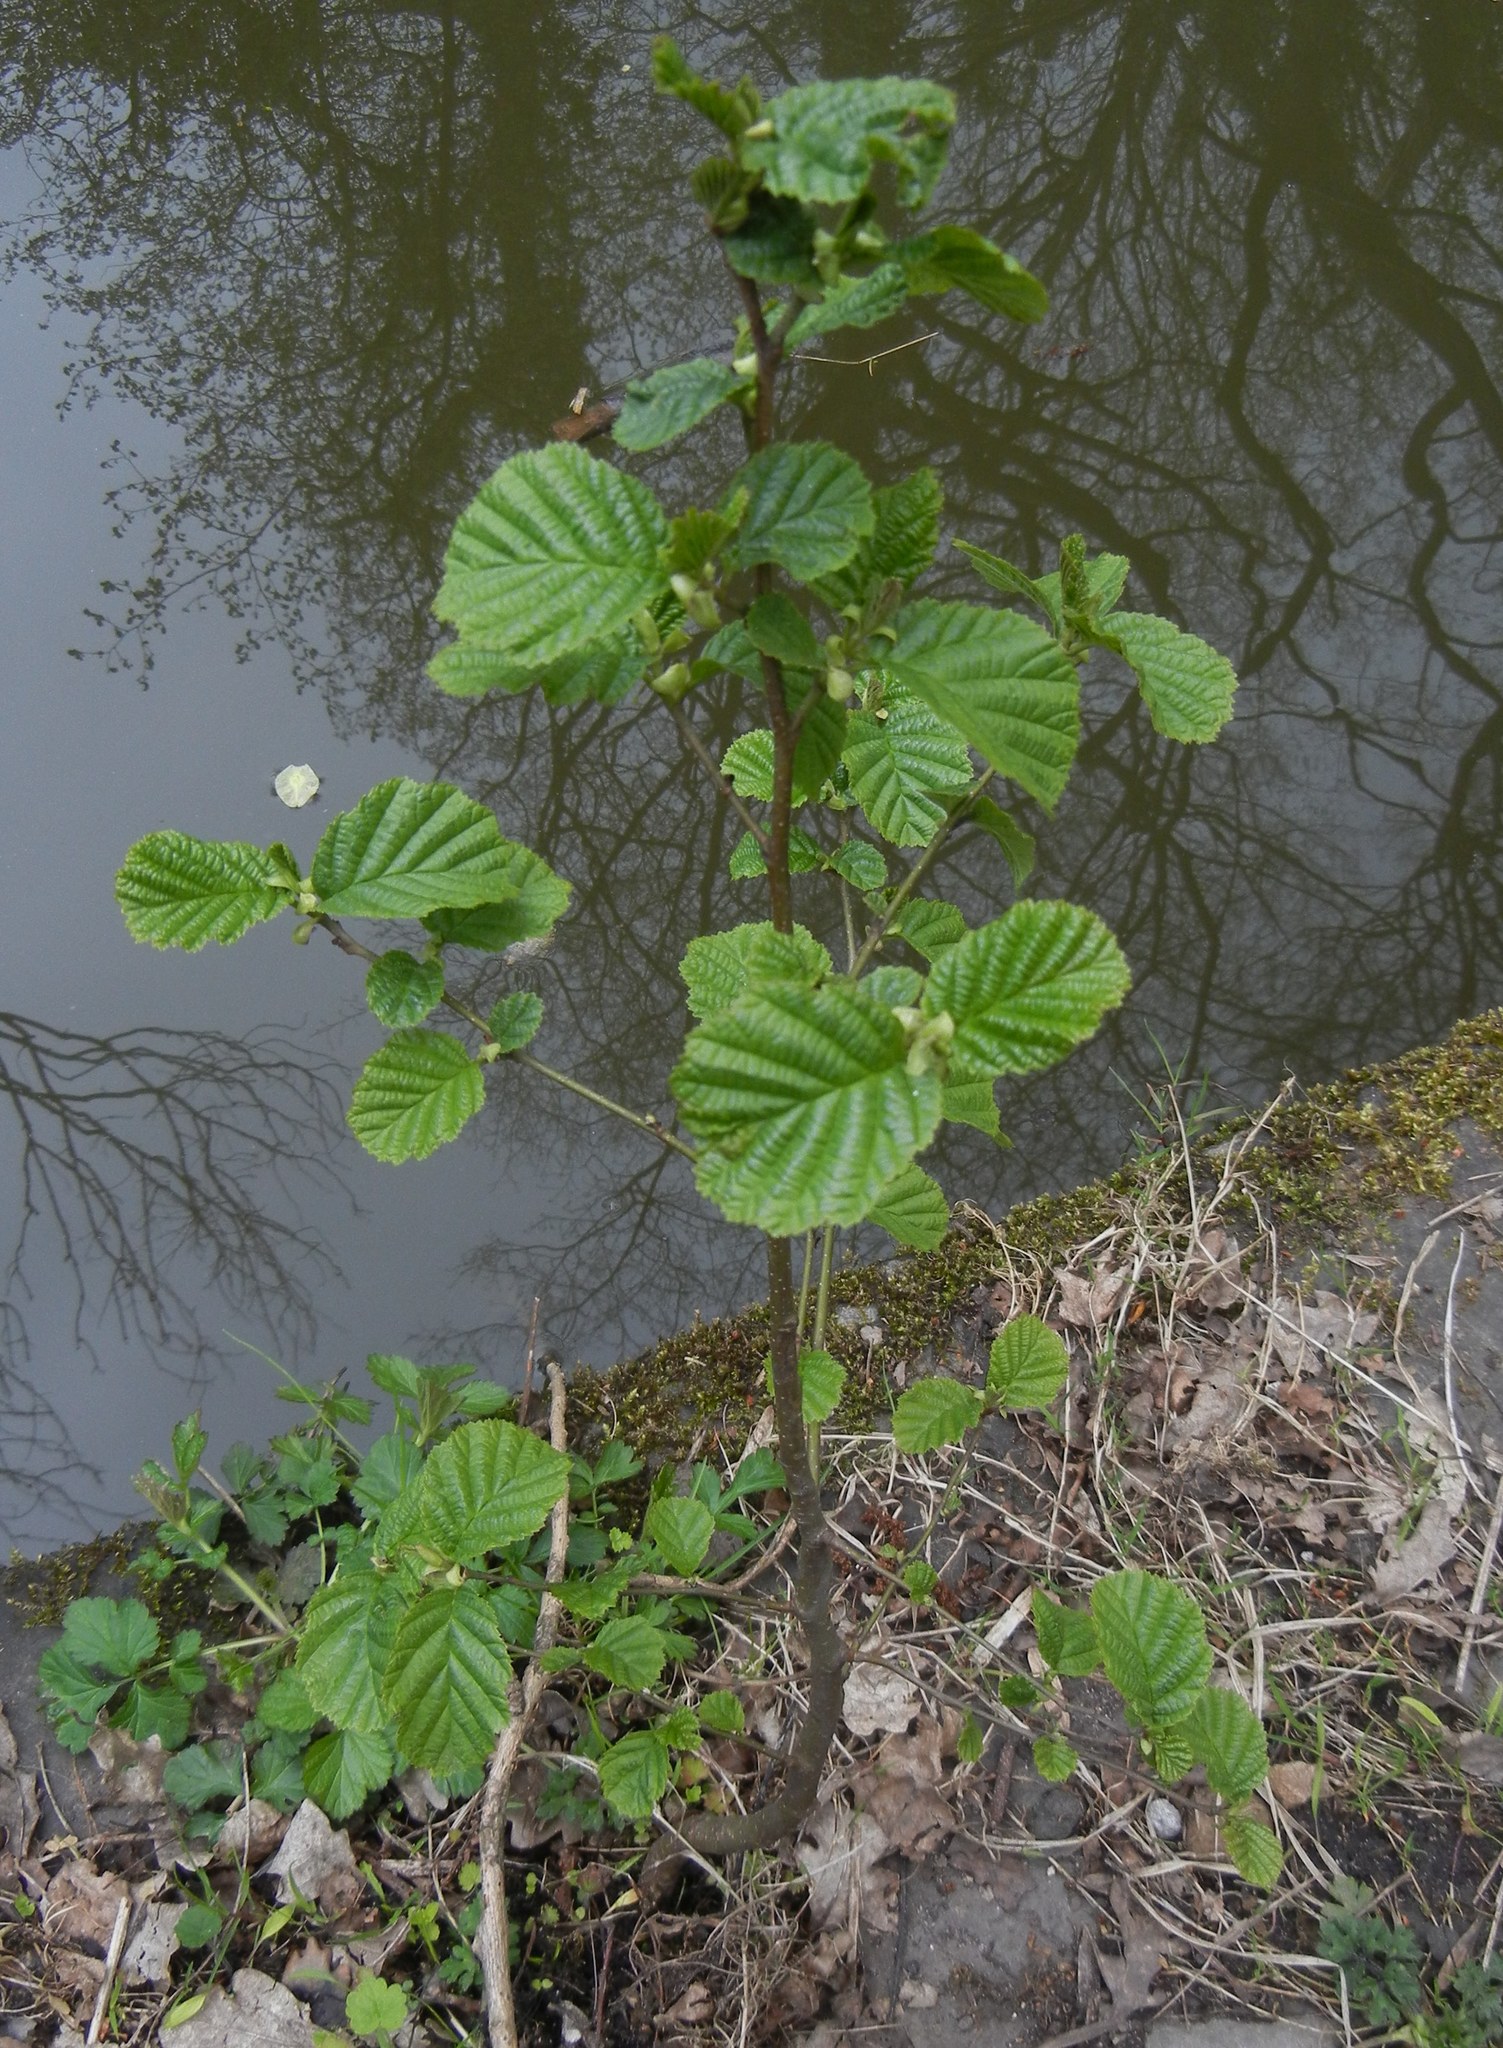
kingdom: Plantae
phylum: Tracheophyta
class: Magnoliopsida
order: Fagales
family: Betulaceae
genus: Alnus
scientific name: Alnus glutinosa
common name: Black alder
